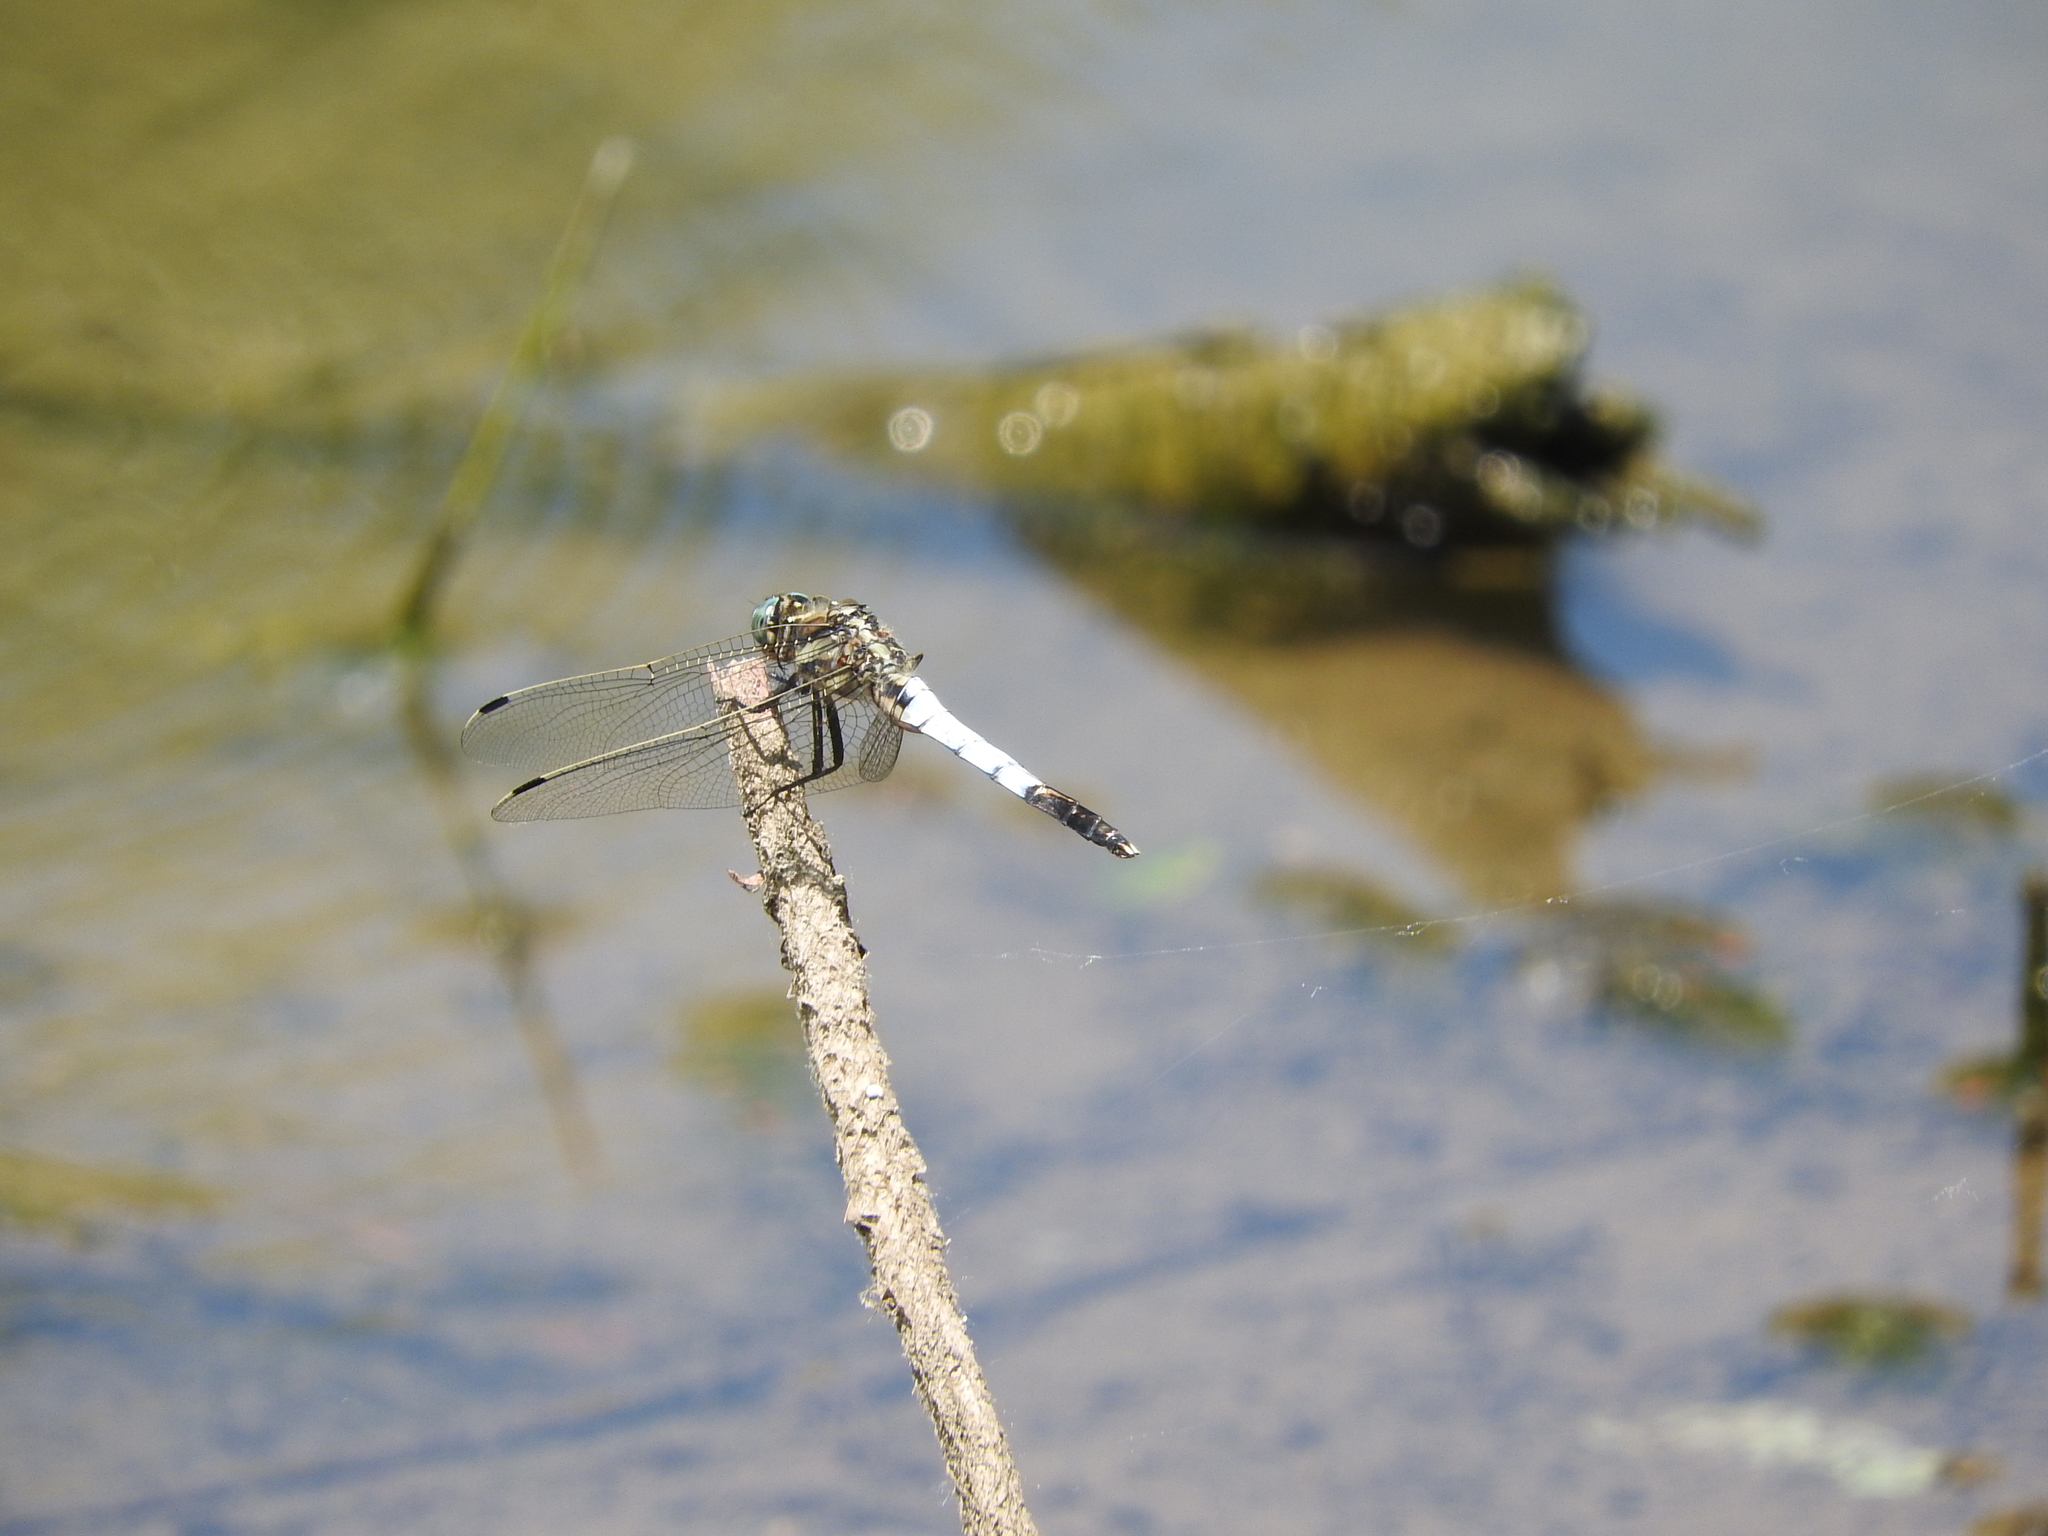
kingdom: Animalia
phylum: Arthropoda
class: Insecta
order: Odonata
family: Libellulidae
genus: Orthetrum
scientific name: Orthetrum albistylum
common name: White-tailed skimmer
